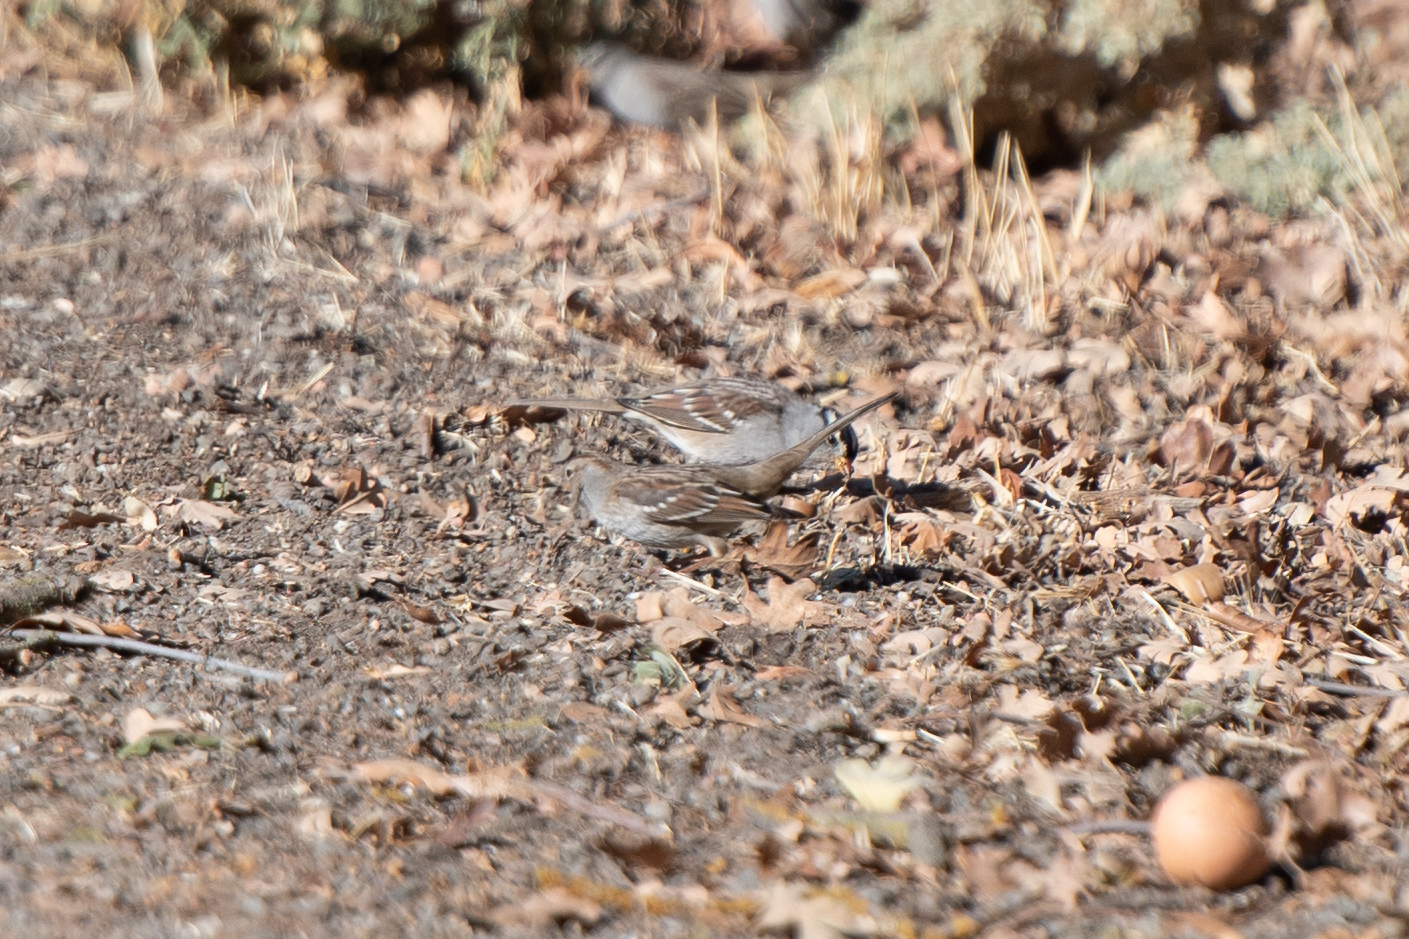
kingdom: Animalia
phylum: Chordata
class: Aves
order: Passeriformes
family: Passerellidae
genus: Zonotrichia
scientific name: Zonotrichia leucophrys
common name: White-crowned sparrow
